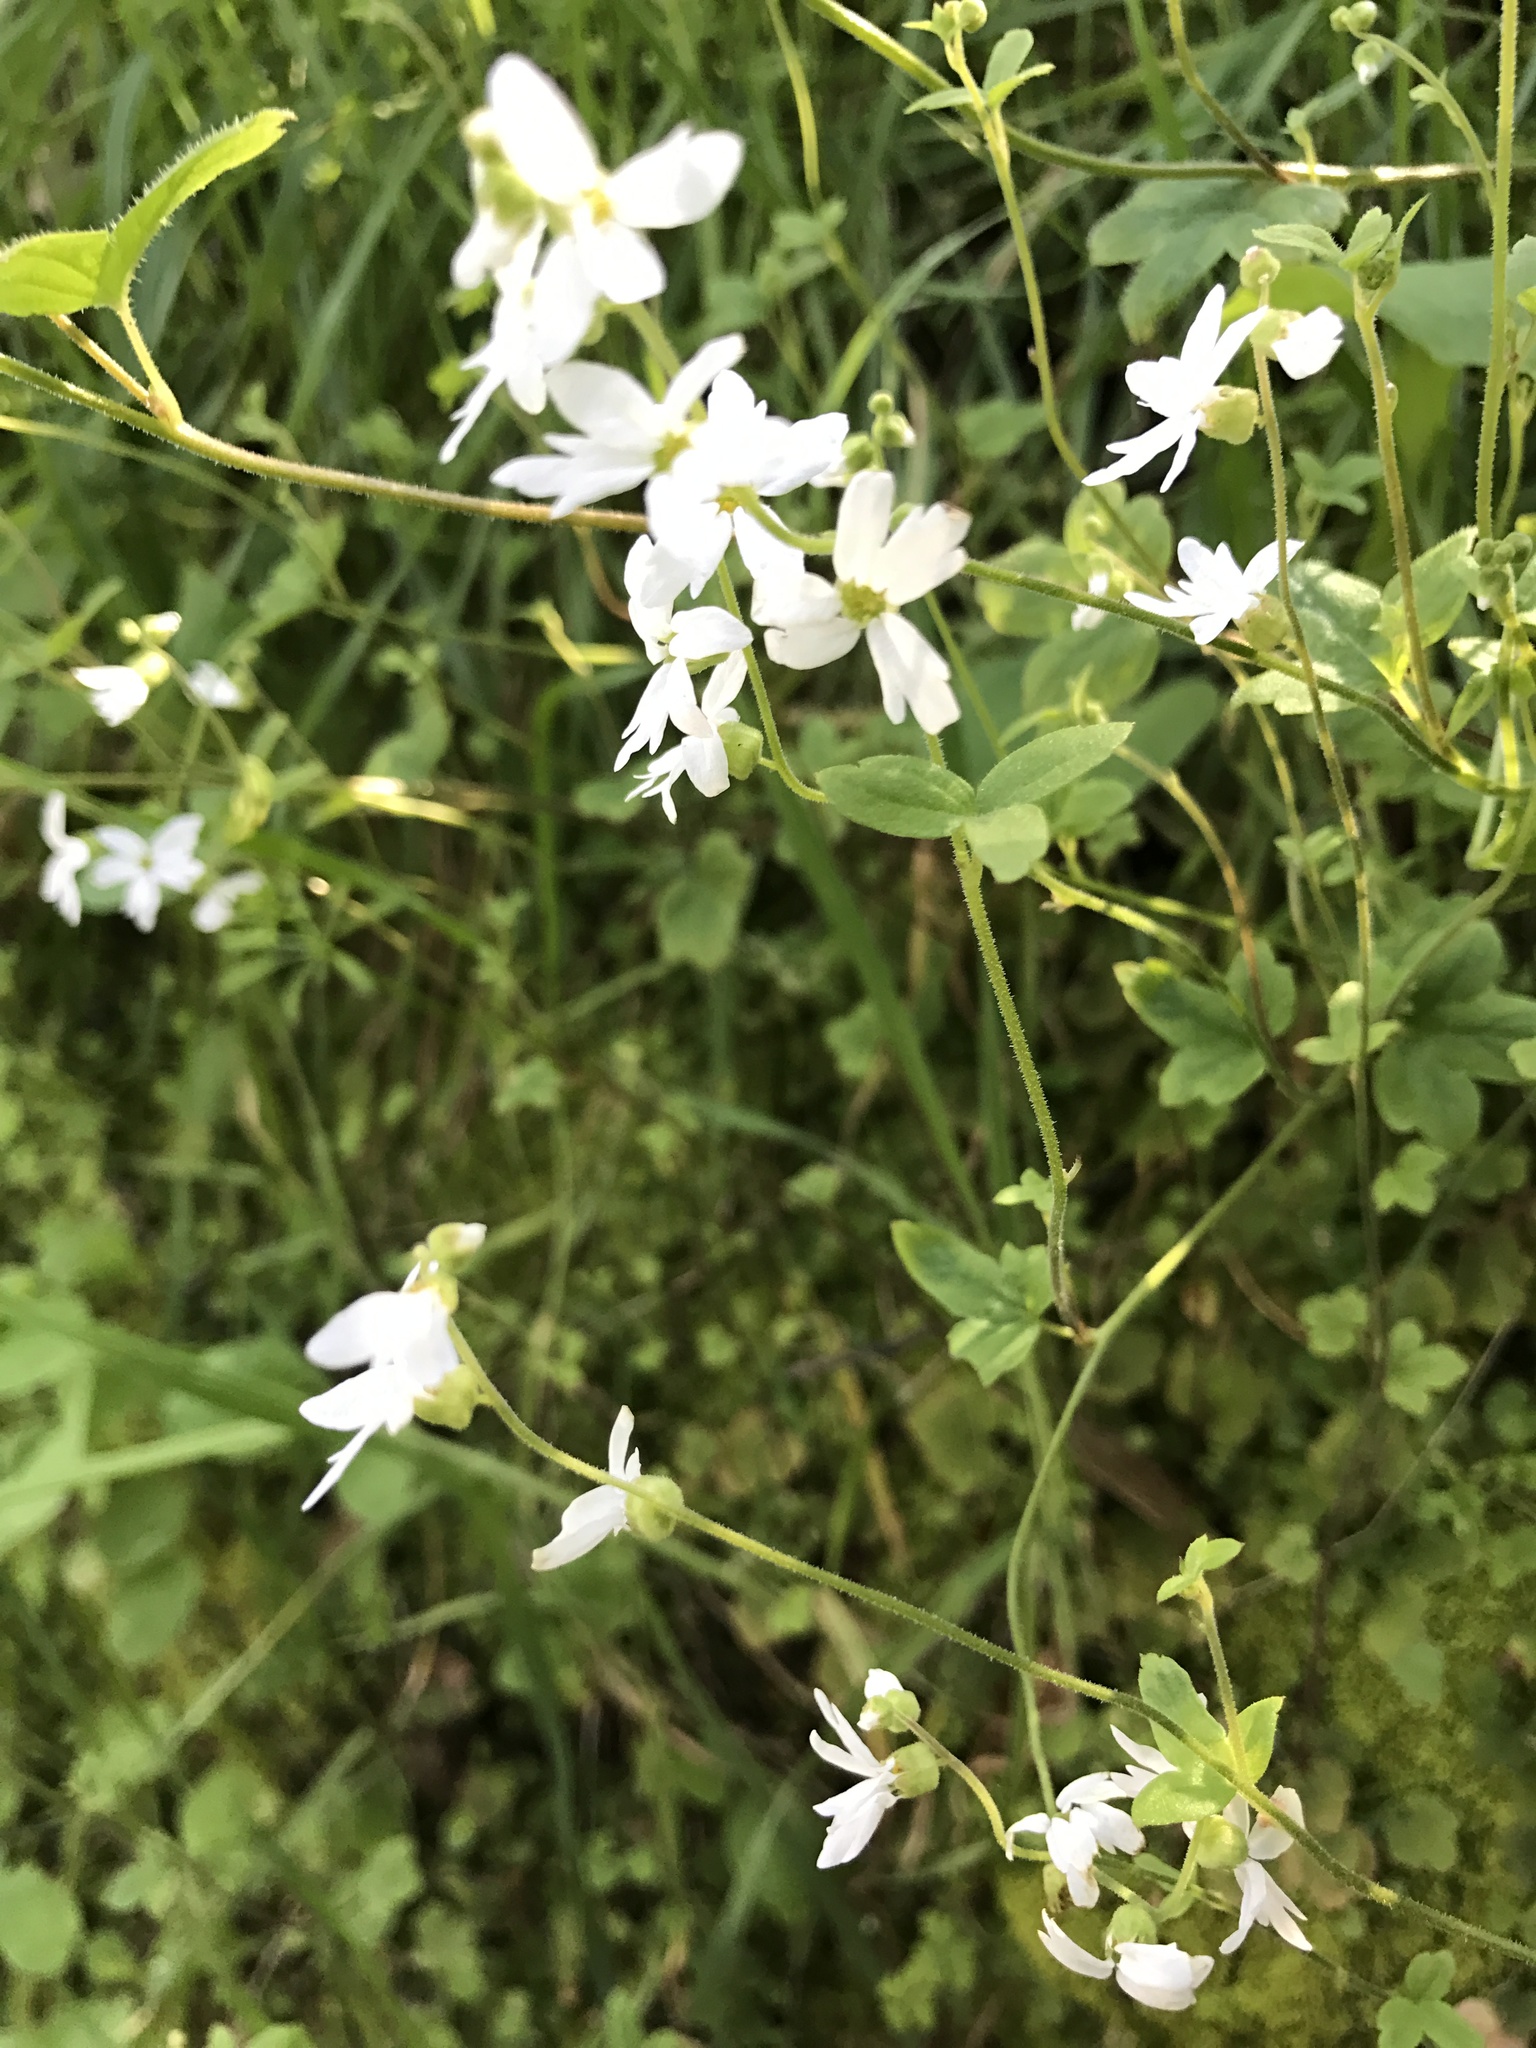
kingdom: Plantae
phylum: Tracheophyta
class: Magnoliopsida
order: Saxifragales
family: Saxifragaceae
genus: Lithophragma
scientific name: Lithophragma heterophyllum
